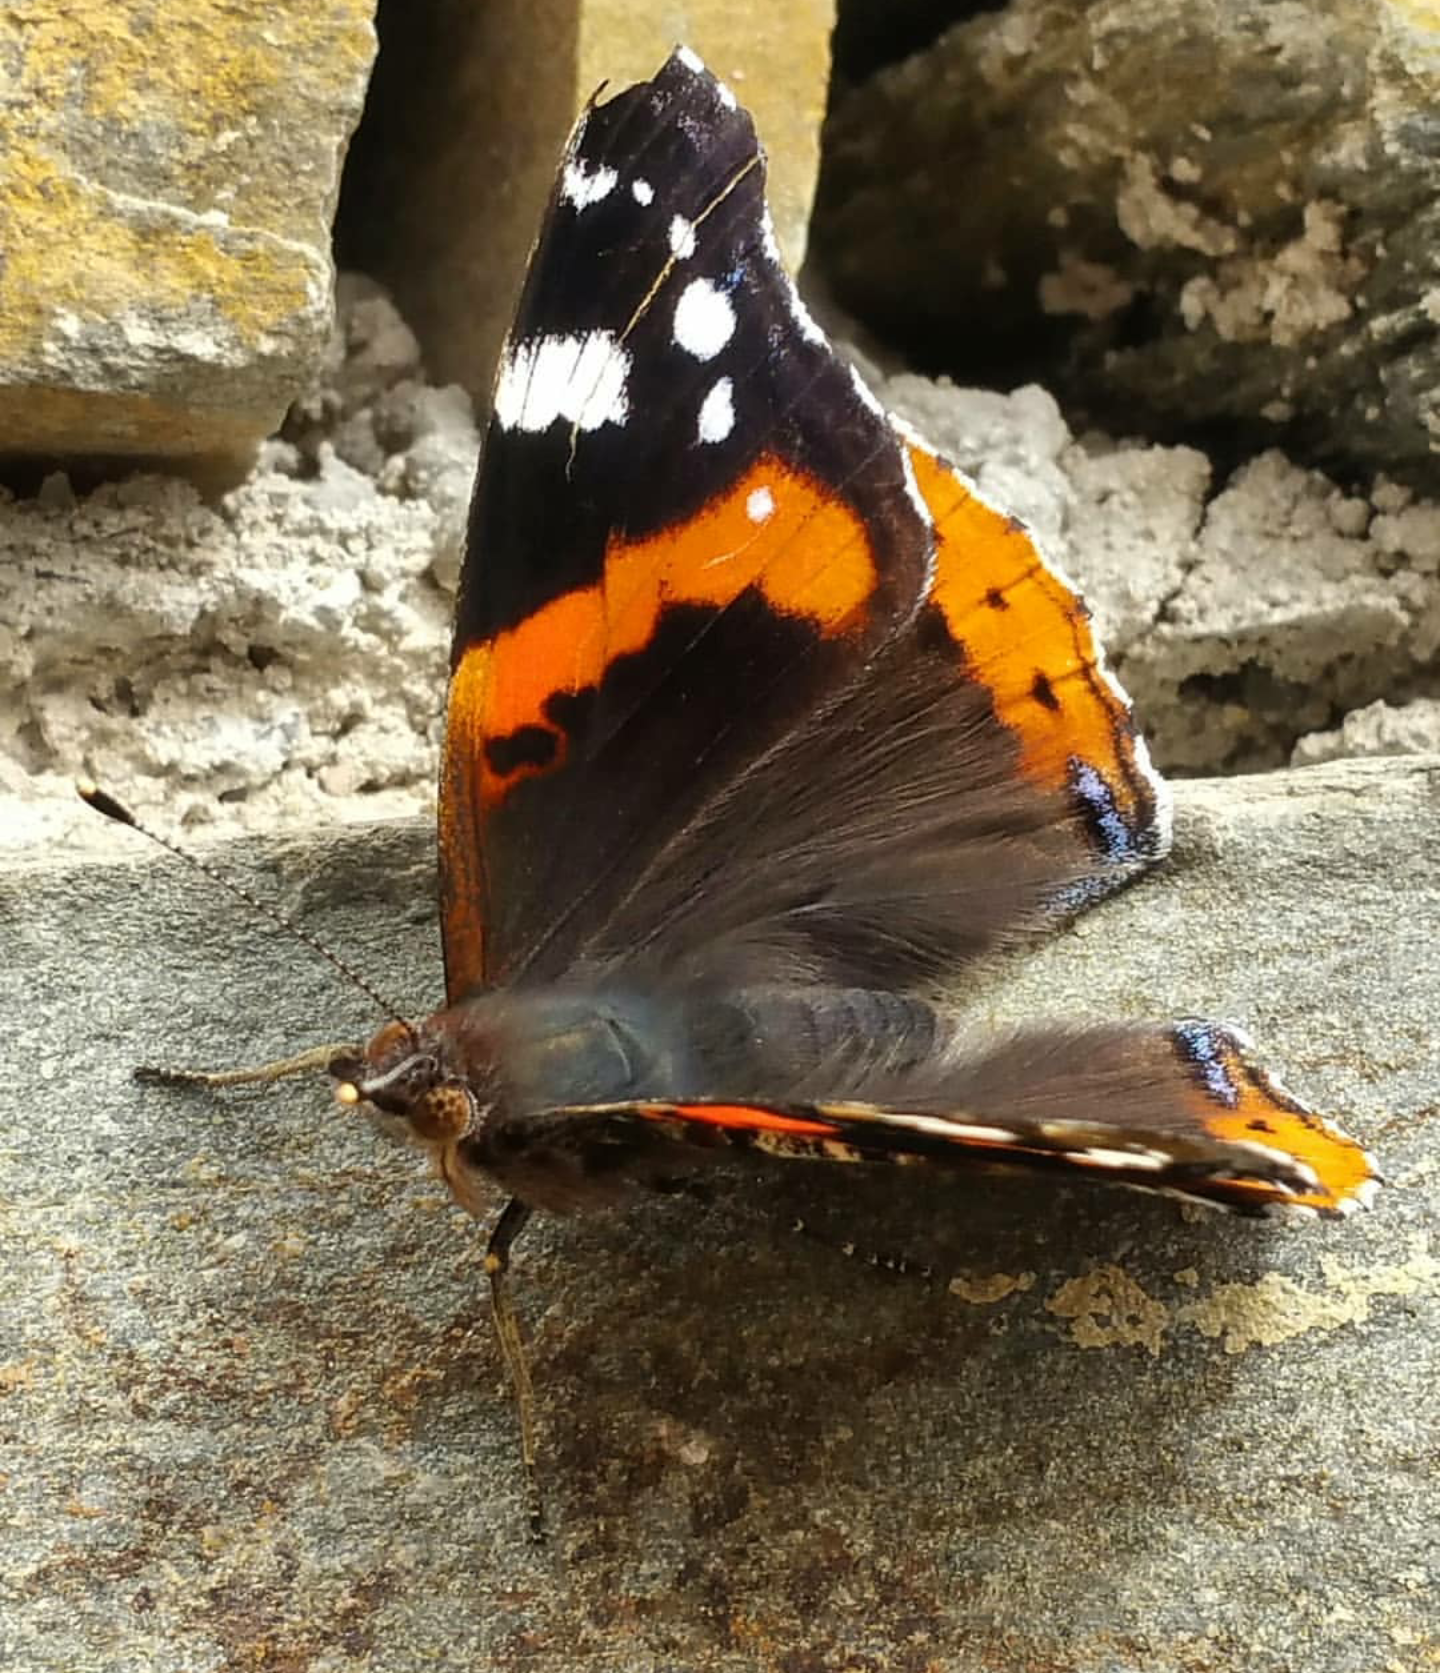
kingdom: Animalia
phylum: Arthropoda
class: Insecta
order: Lepidoptera
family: Nymphalidae
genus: Vanessa
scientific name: Vanessa atalanta
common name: Red admiral
